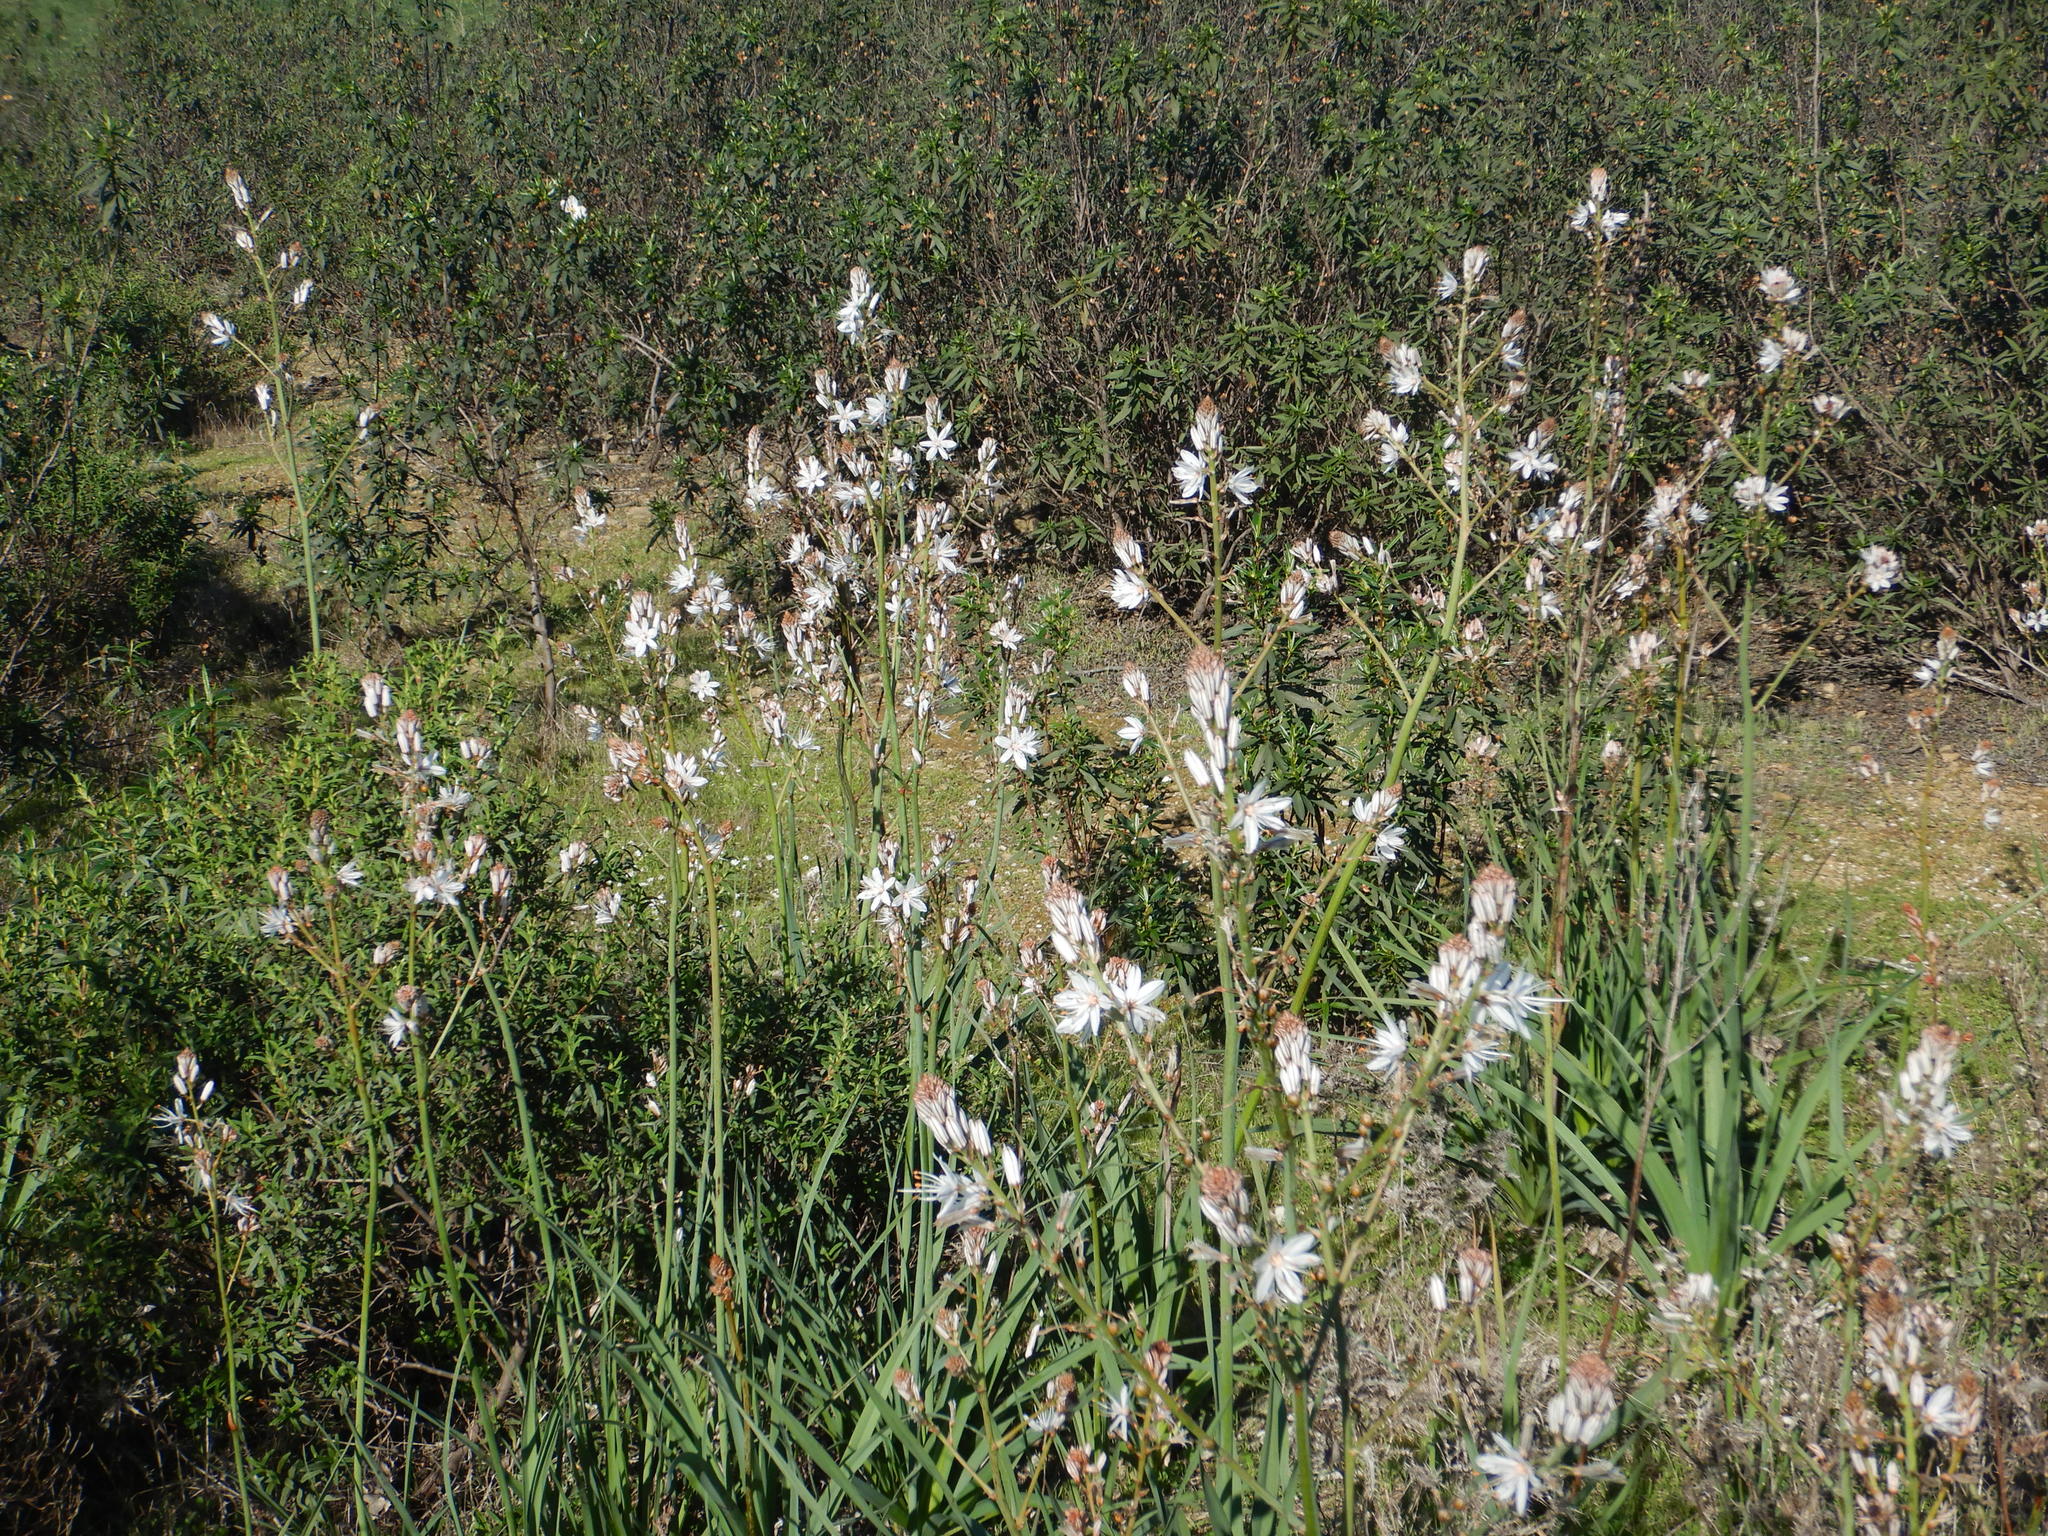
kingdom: Plantae
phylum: Tracheophyta
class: Liliopsida
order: Asparagales
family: Asphodelaceae
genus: Asphodelus
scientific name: Asphodelus ramosus
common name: Silverrod
